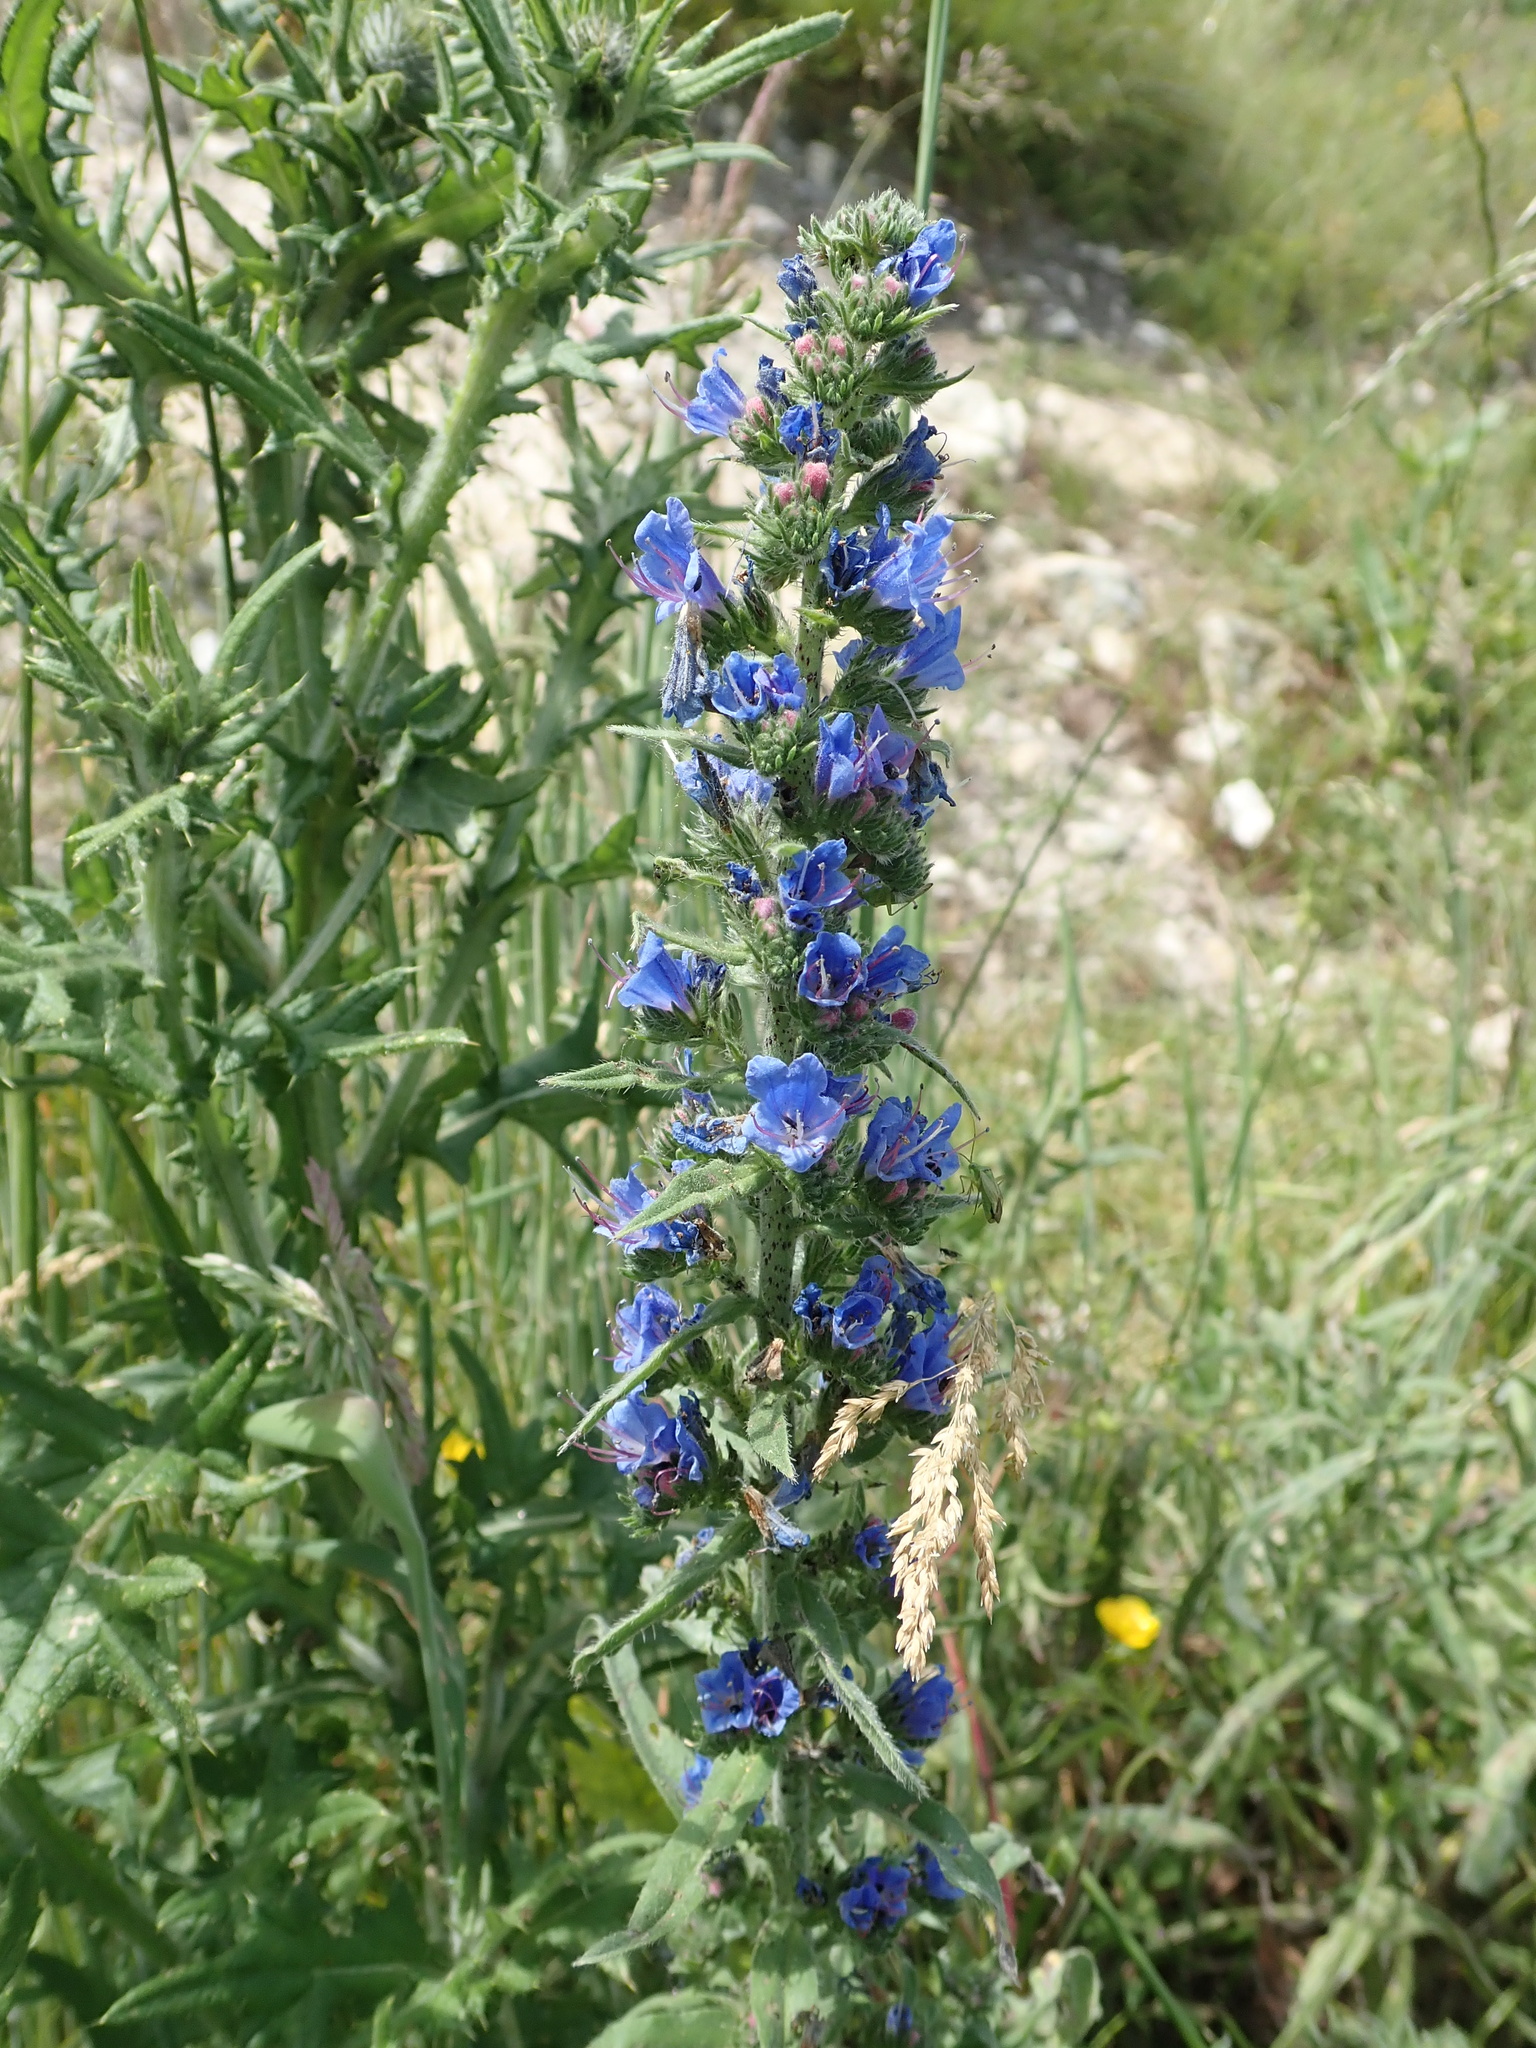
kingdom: Plantae
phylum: Tracheophyta
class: Magnoliopsida
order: Boraginales
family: Boraginaceae
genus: Echium
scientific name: Echium vulgare
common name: Common viper's bugloss
